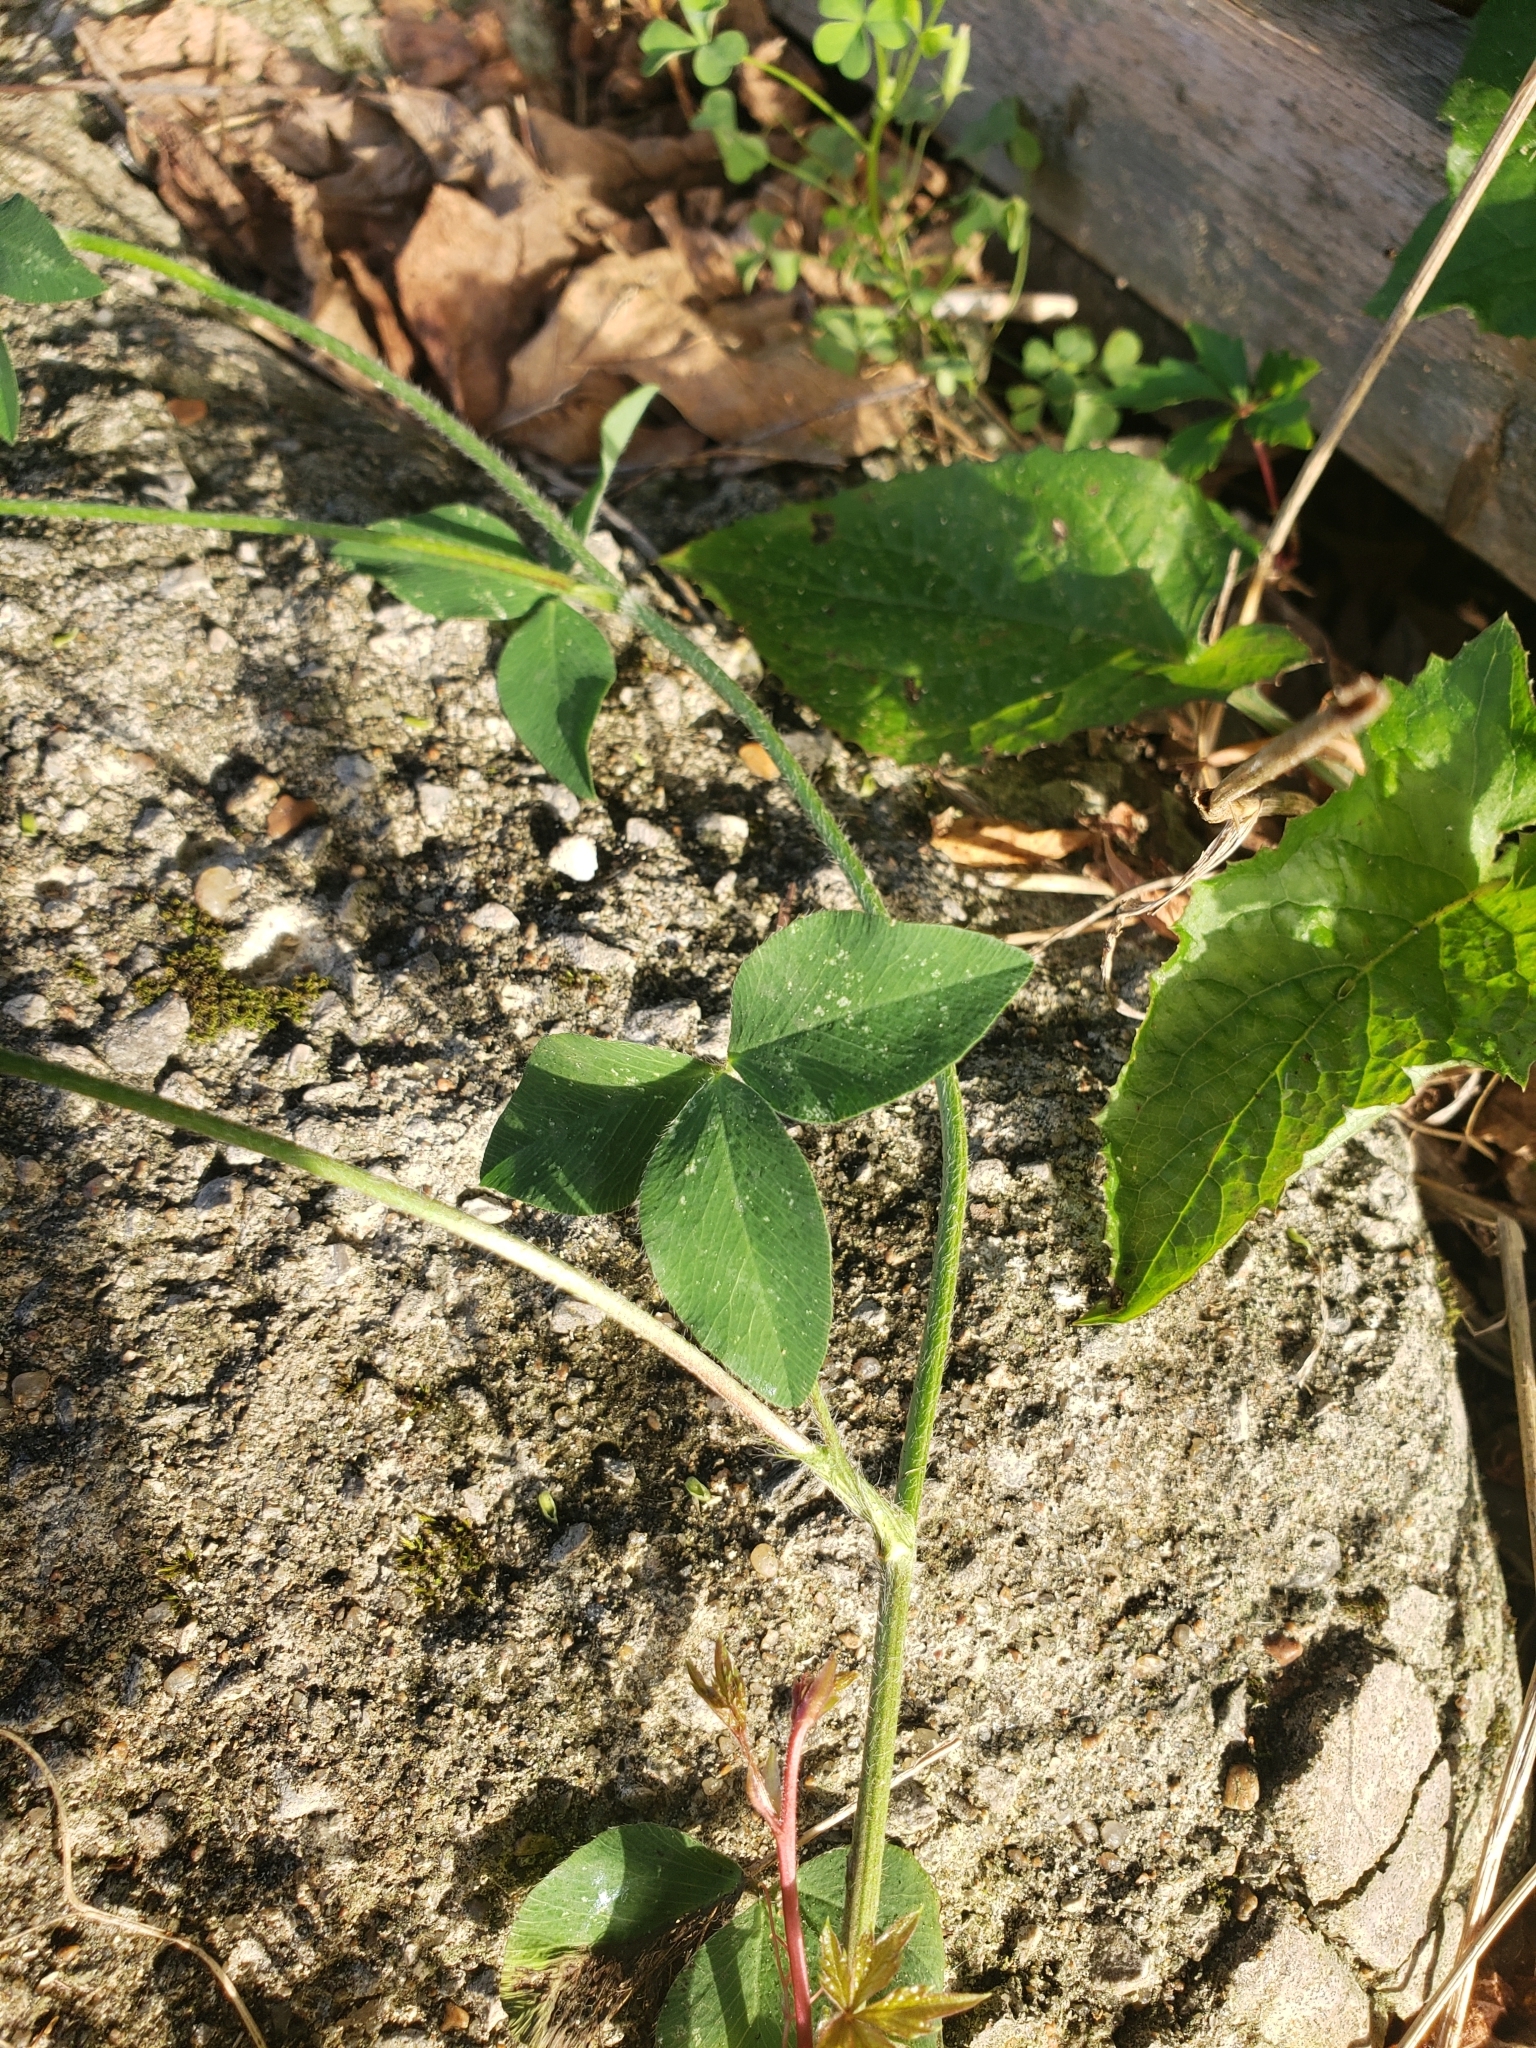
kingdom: Plantae
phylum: Tracheophyta
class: Magnoliopsida
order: Fabales
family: Fabaceae
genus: Trifolium
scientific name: Trifolium pratense
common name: Red clover
